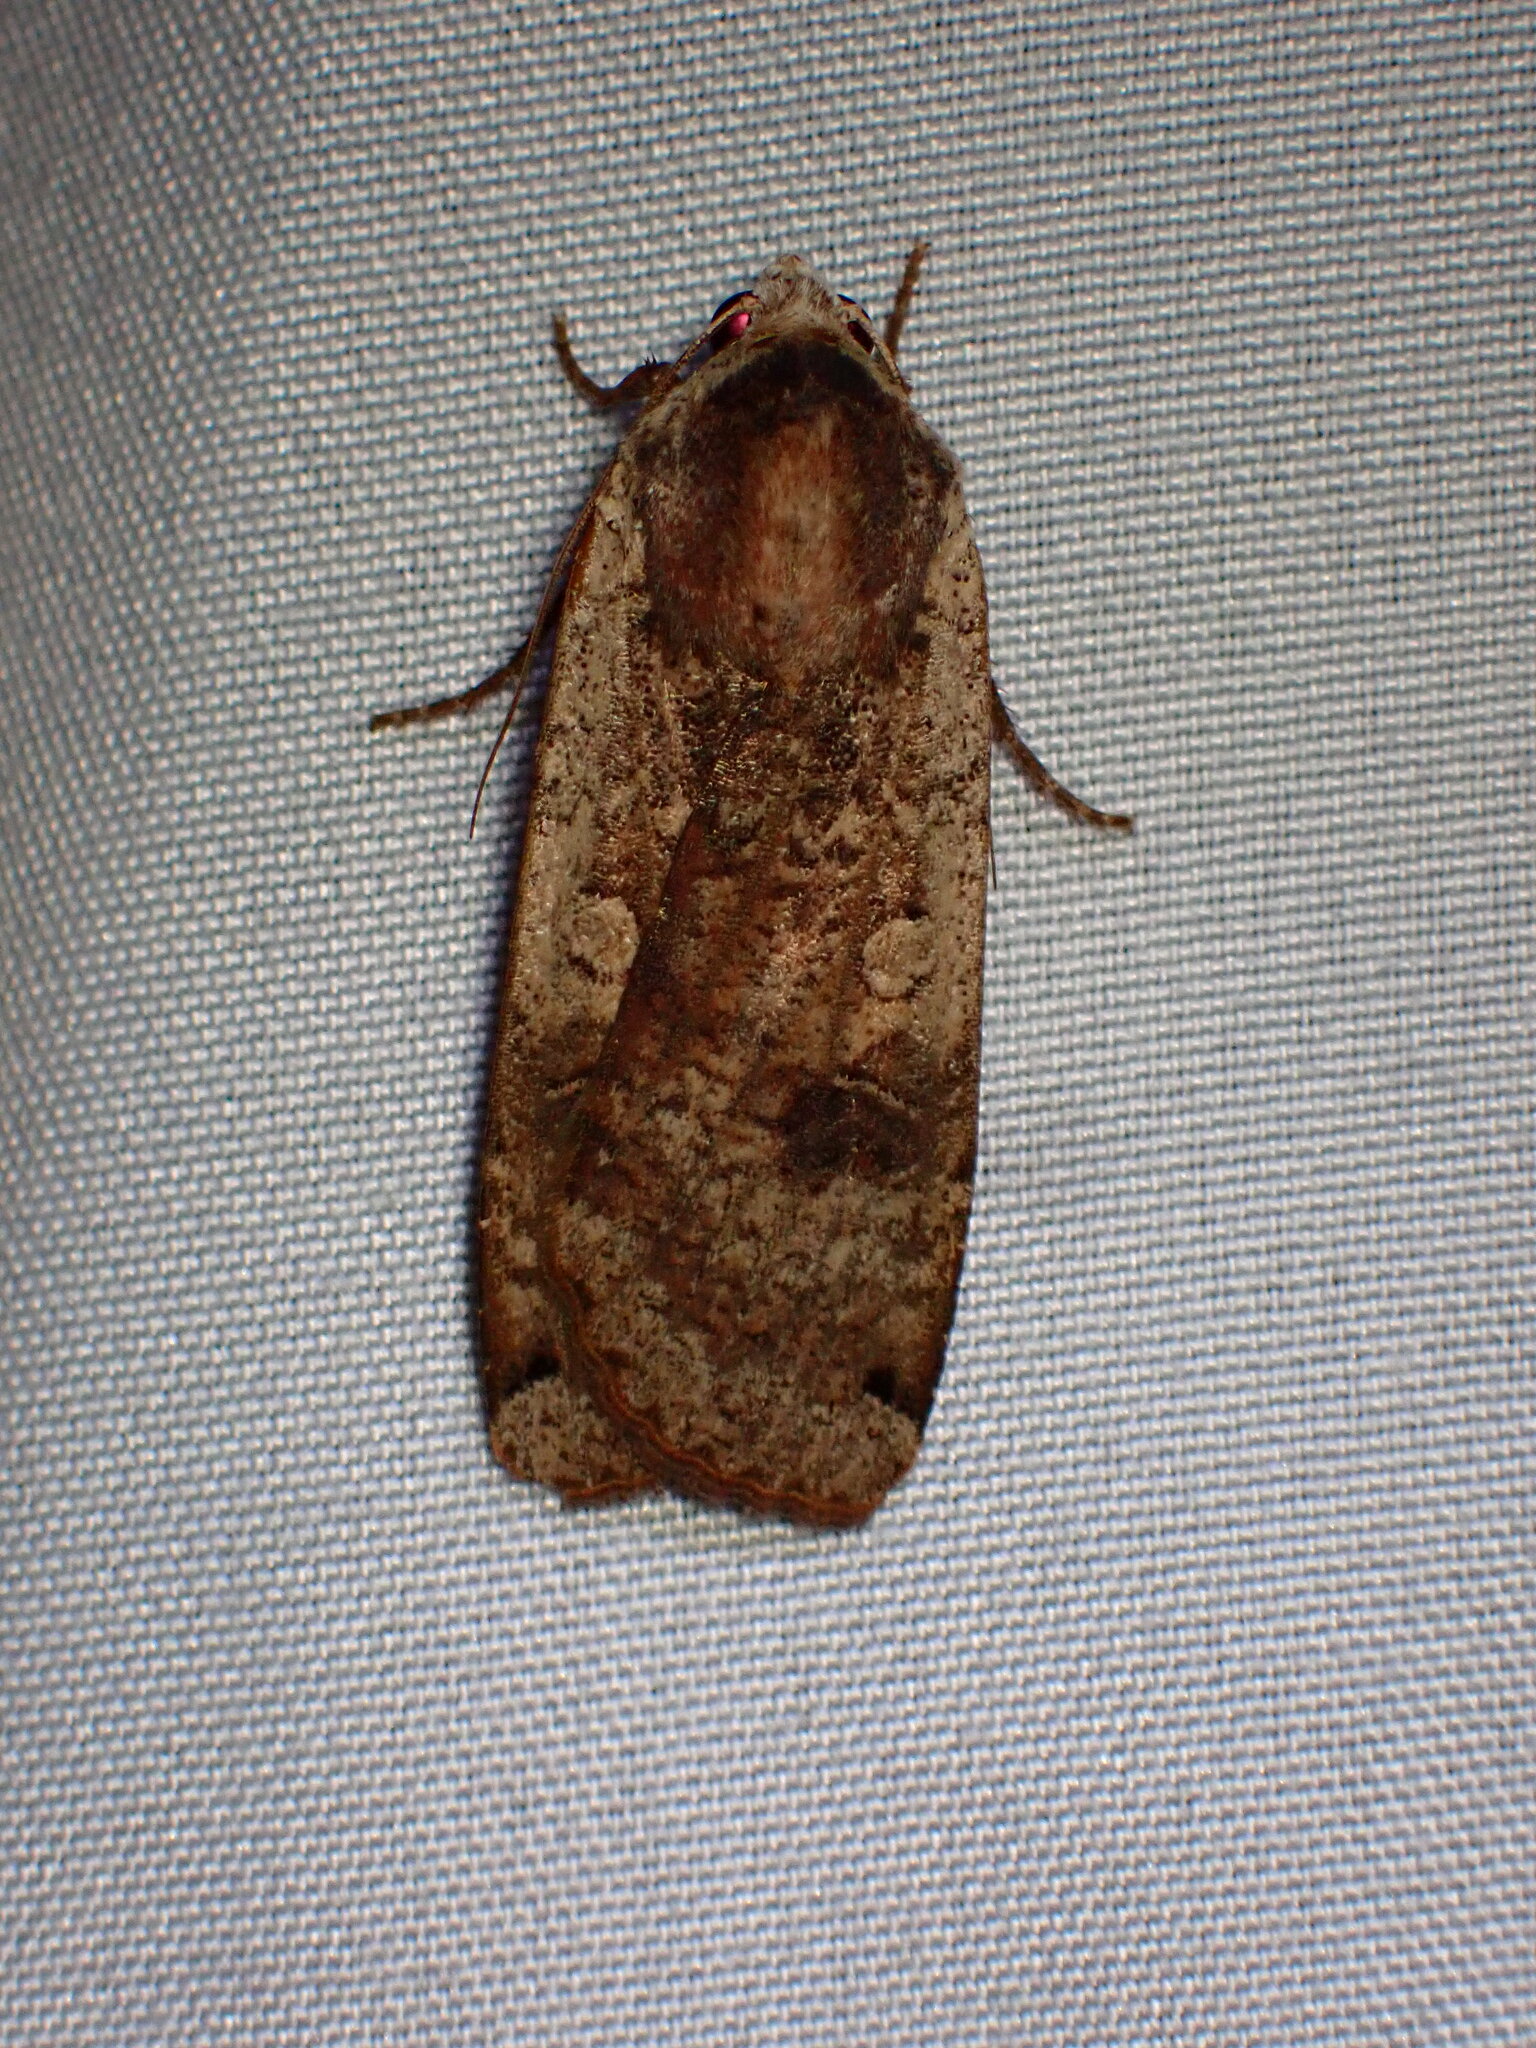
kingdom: Animalia
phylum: Arthropoda
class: Insecta
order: Lepidoptera
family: Noctuidae
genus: Noctua
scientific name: Noctua pronuba
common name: Large yellow underwing
